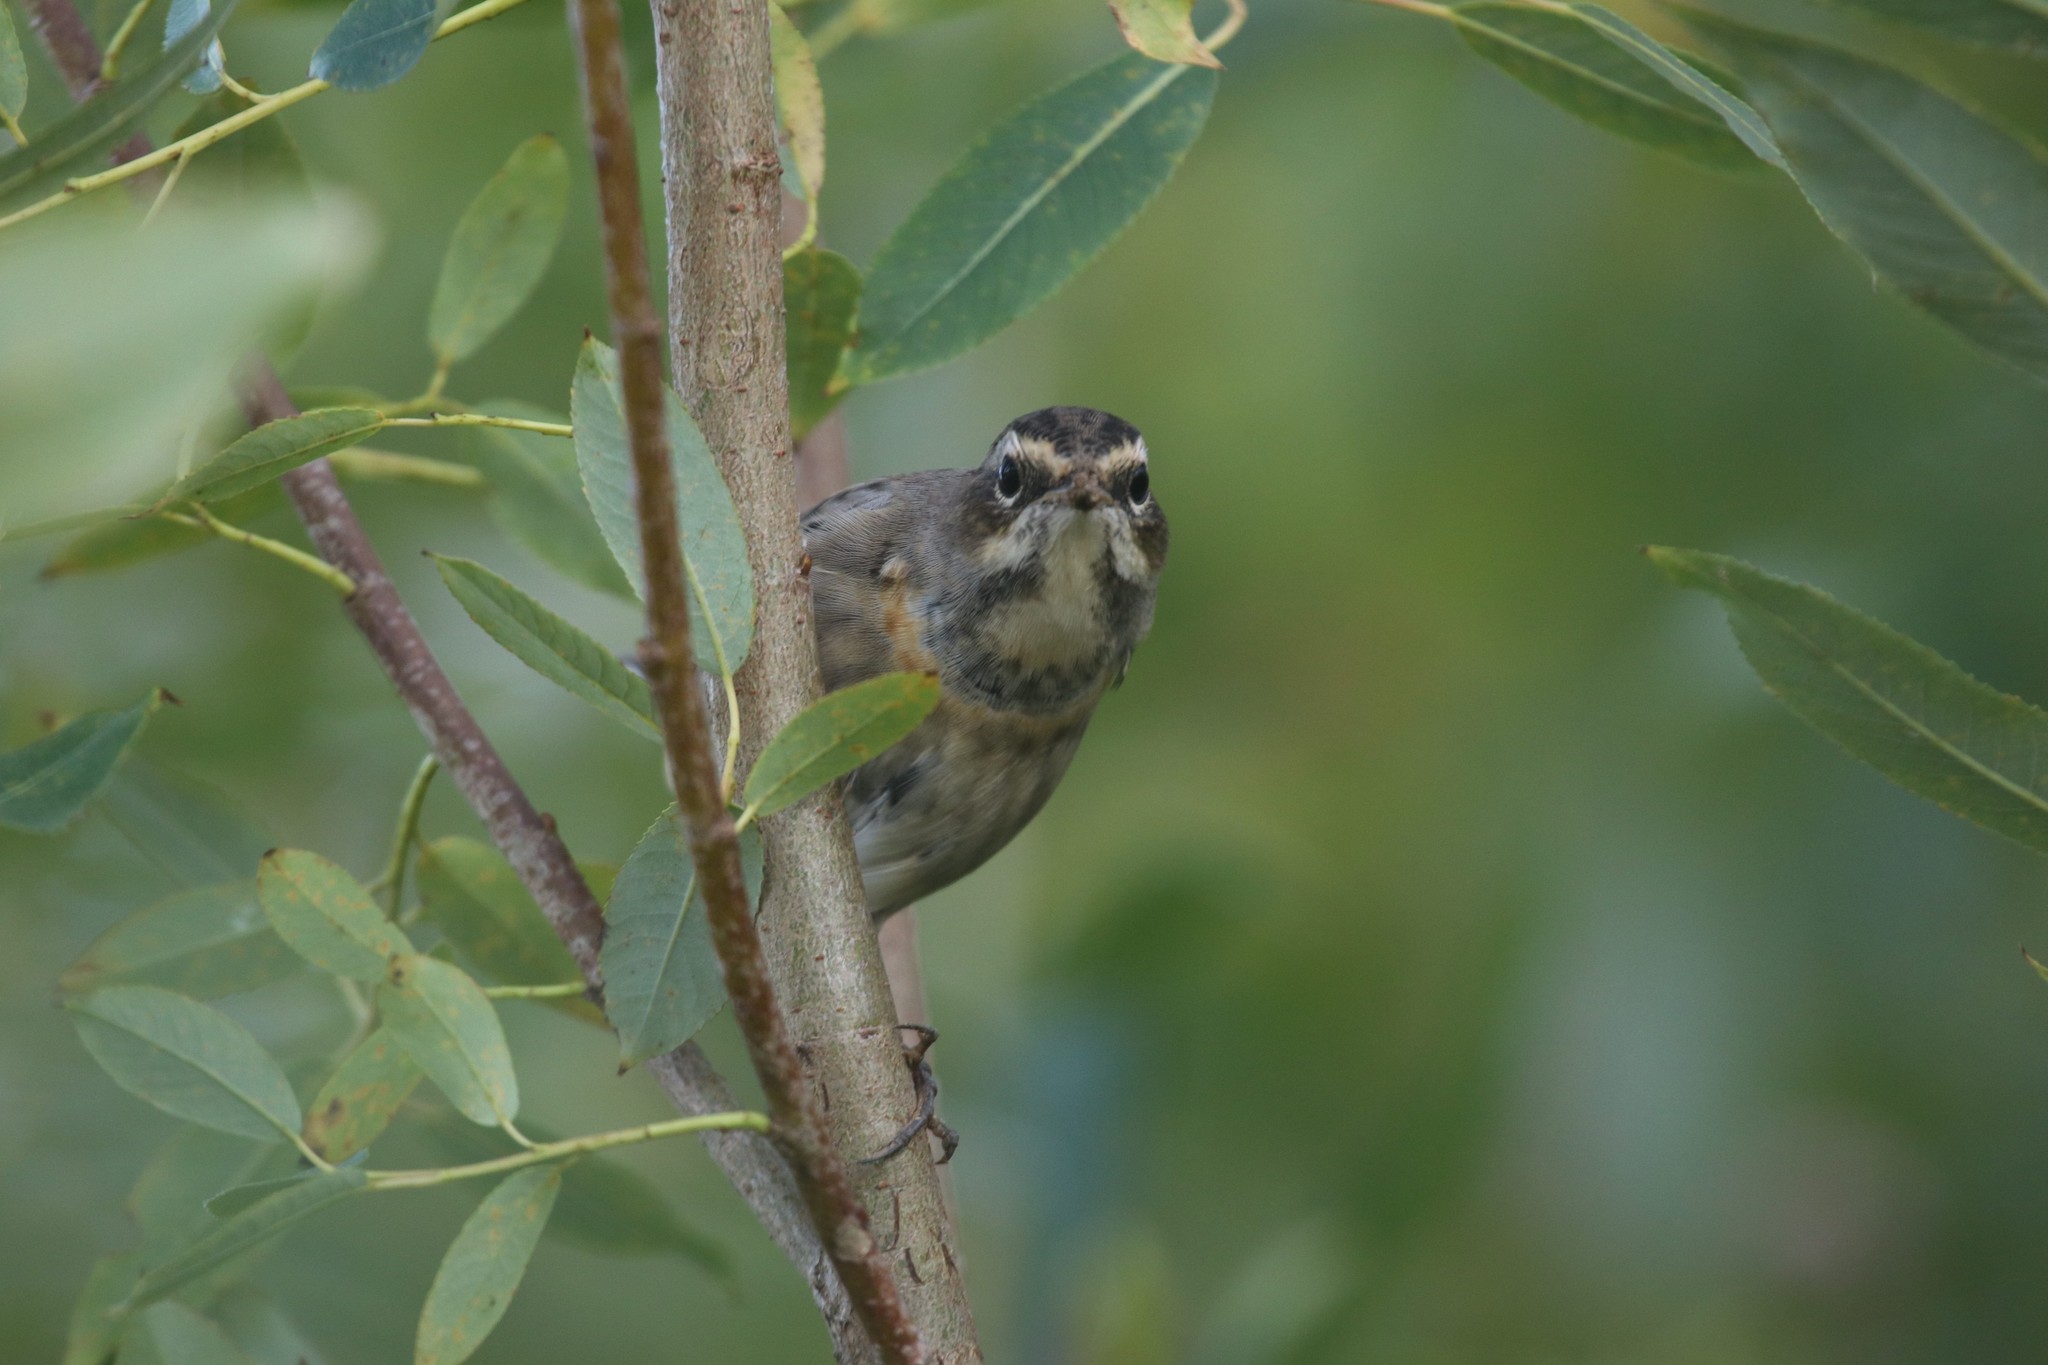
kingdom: Animalia
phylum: Chordata
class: Aves
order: Passeriformes
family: Muscicapidae
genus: Luscinia
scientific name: Luscinia svecica
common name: Bluethroat
